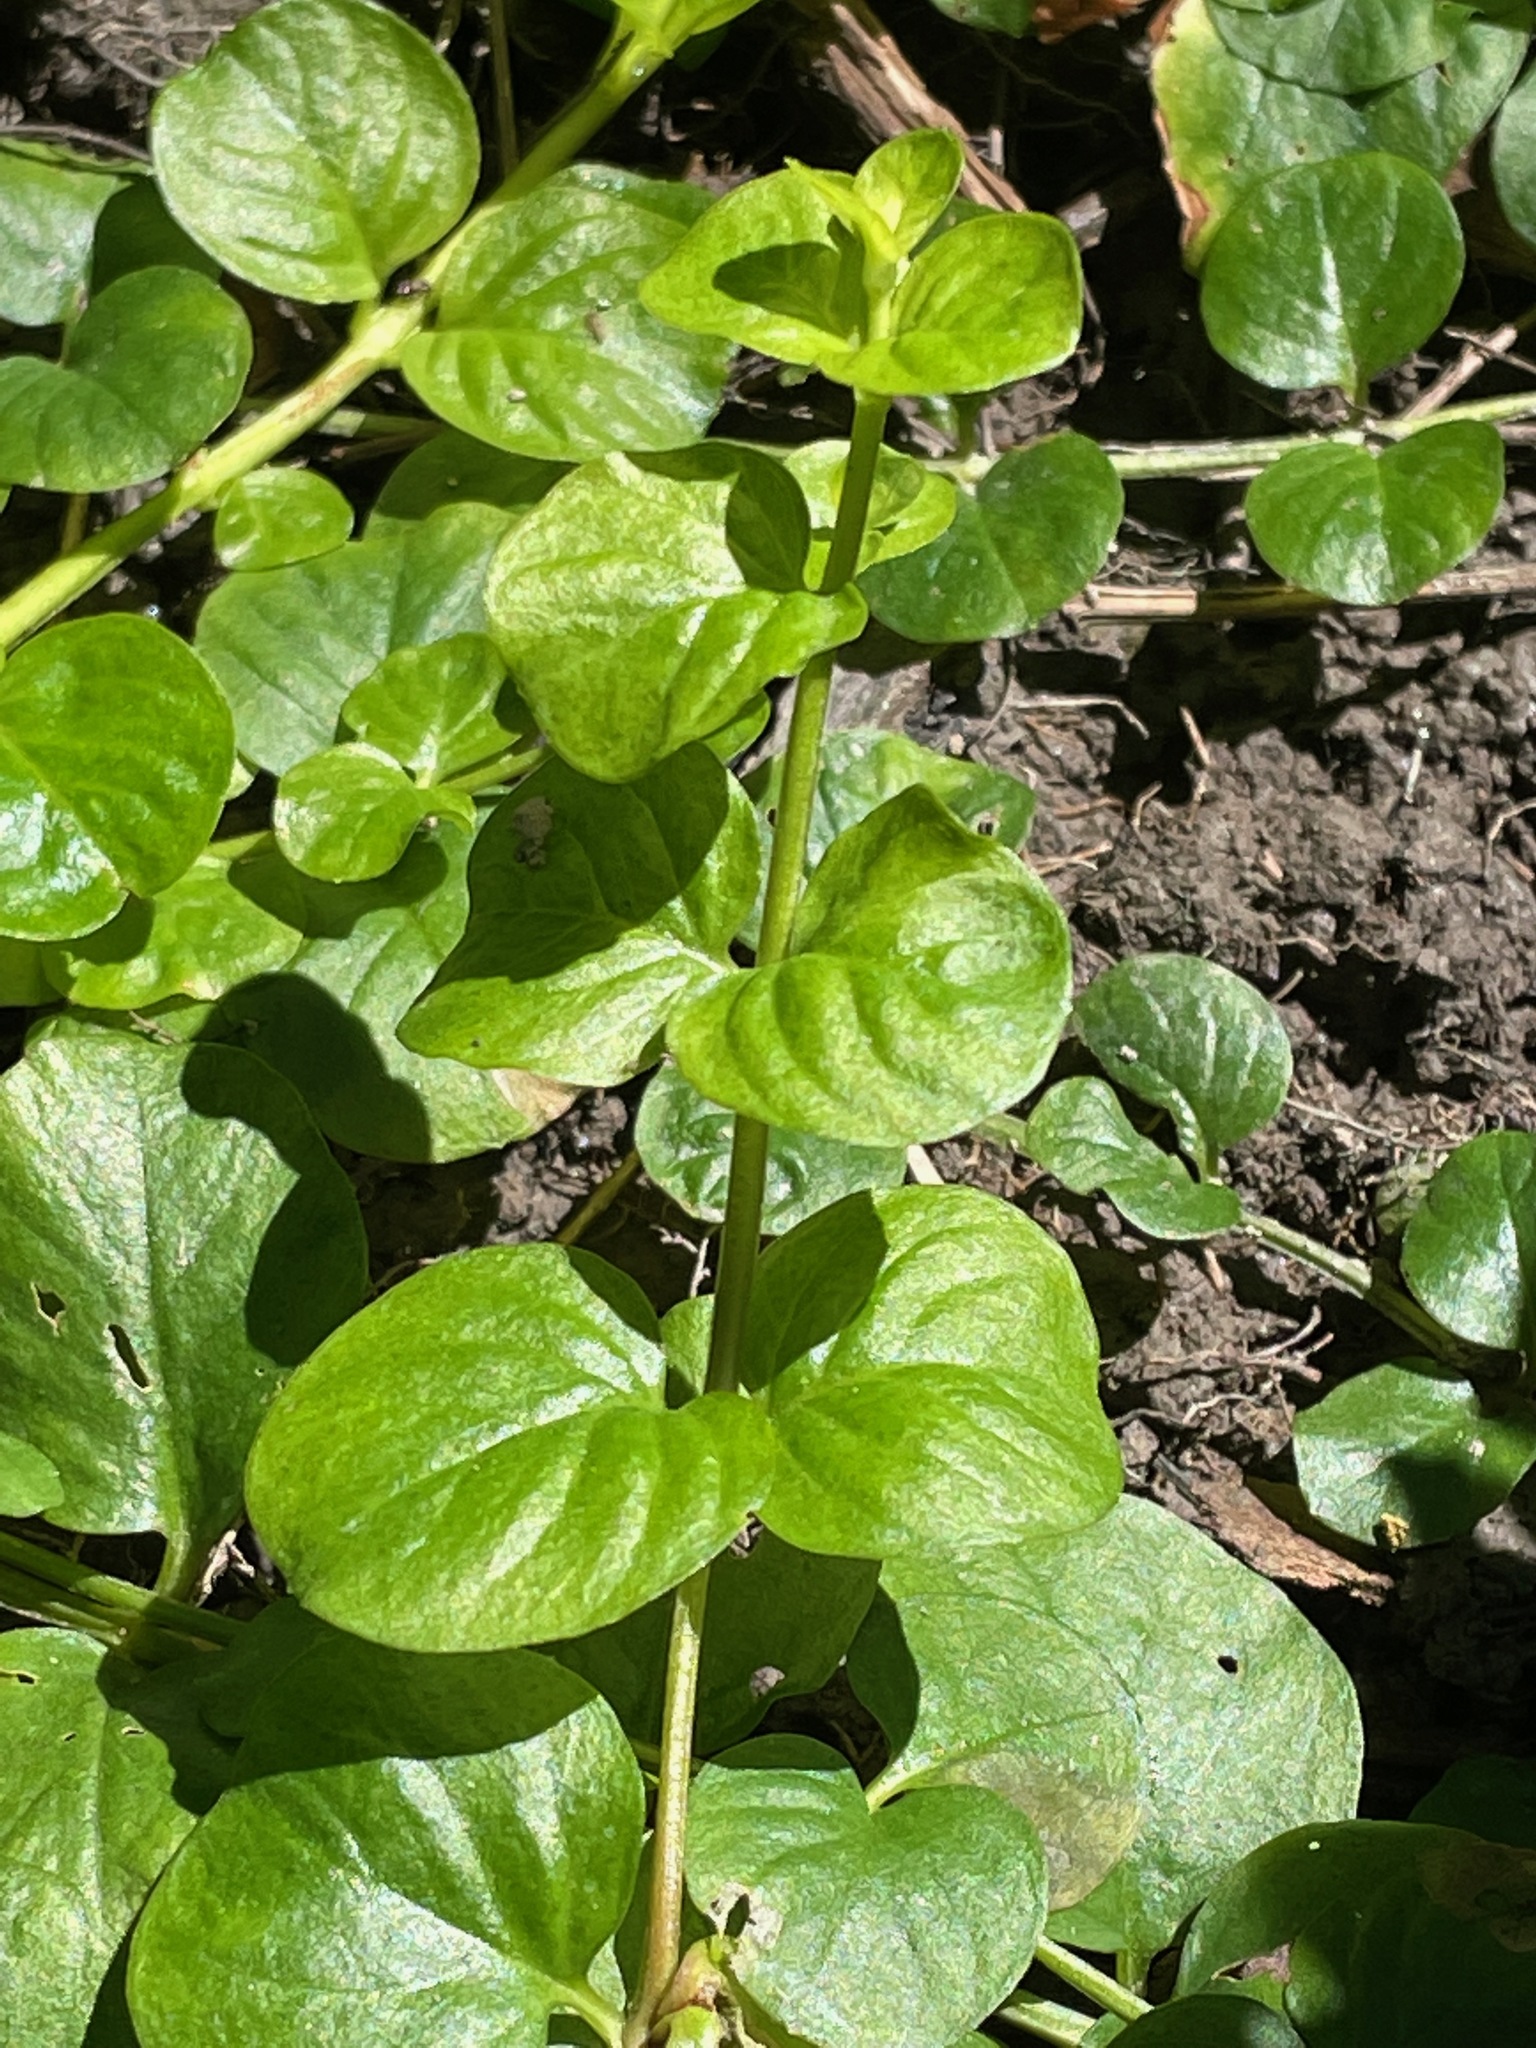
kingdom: Plantae
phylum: Tracheophyta
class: Magnoliopsida
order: Ericales
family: Primulaceae
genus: Lysimachia
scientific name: Lysimachia nummularia
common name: Moneywort
